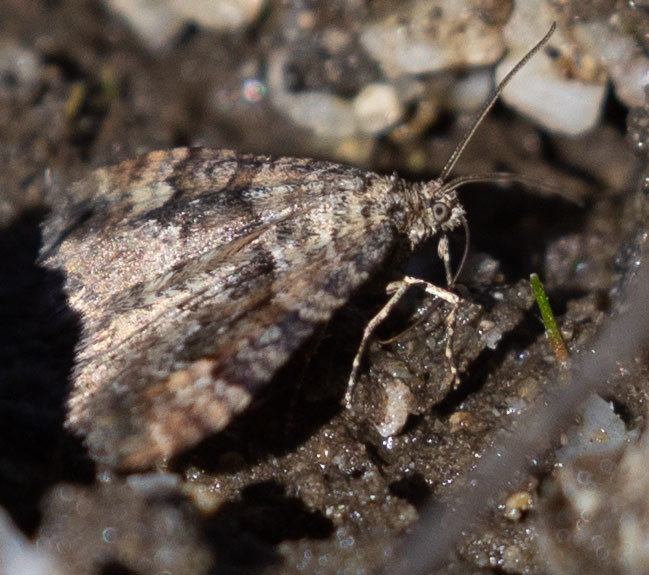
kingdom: Animalia
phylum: Arthropoda
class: Insecta
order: Lepidoptera
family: Geometridae
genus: Epirrhoe
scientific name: Epirrhoe plebeculata
